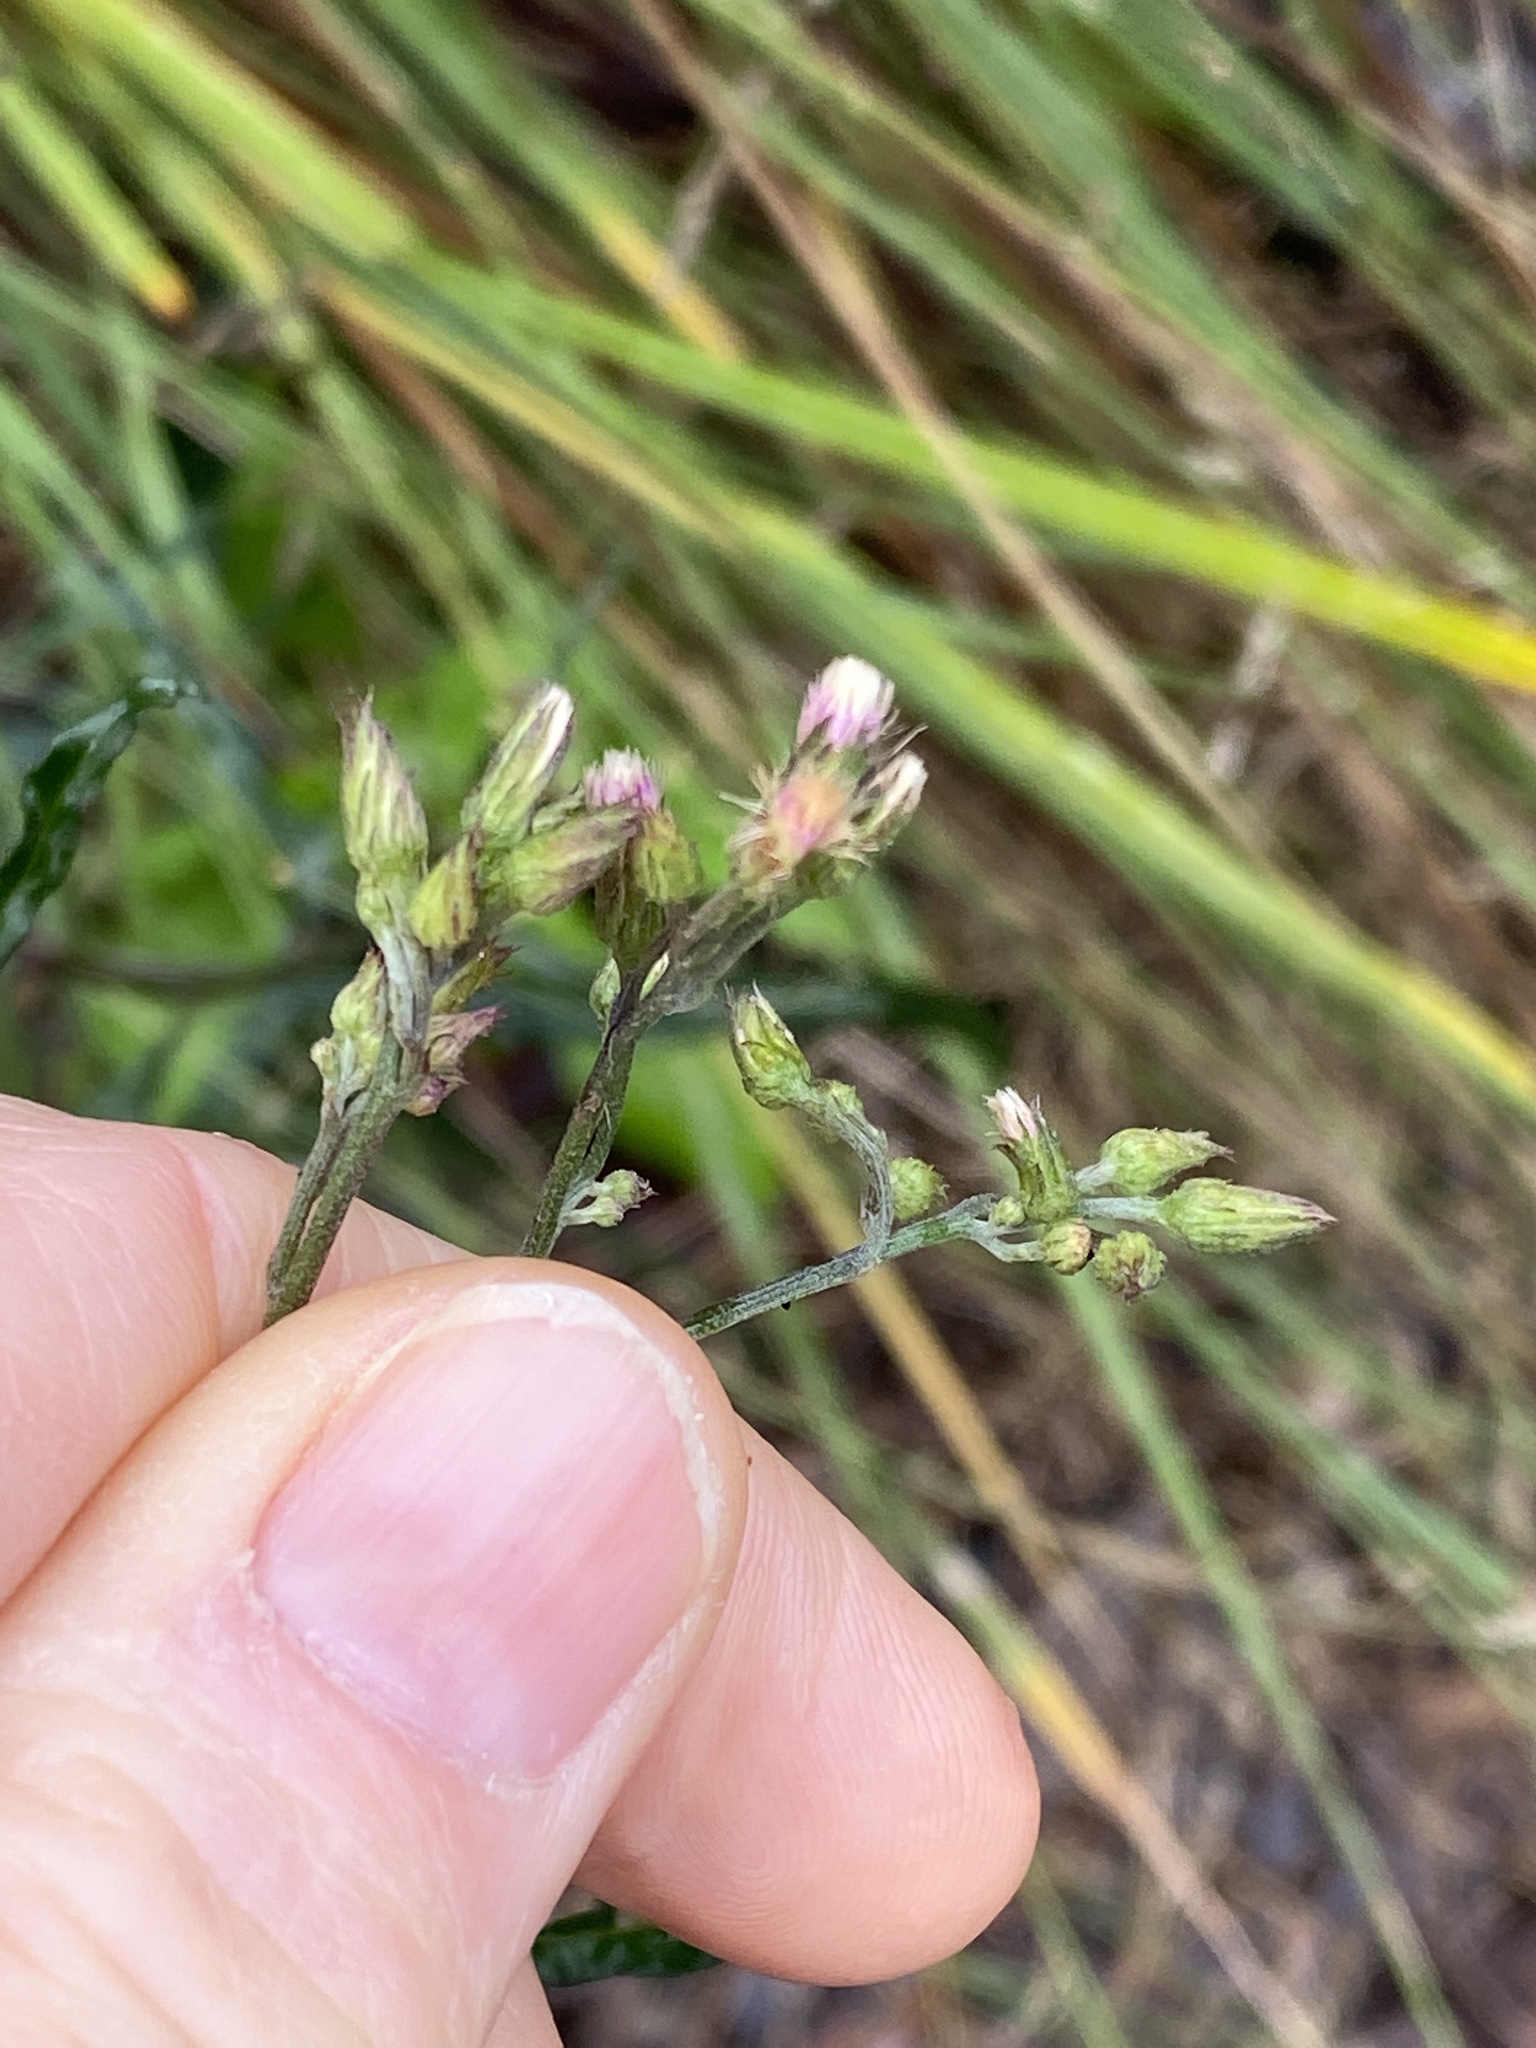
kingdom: Plantae
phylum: Tracheophyta
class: Magnoliopsida
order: Asterales
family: Asteraceae
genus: Cyanthillium
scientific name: Cyanthillium cinereum
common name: Little ironweed
